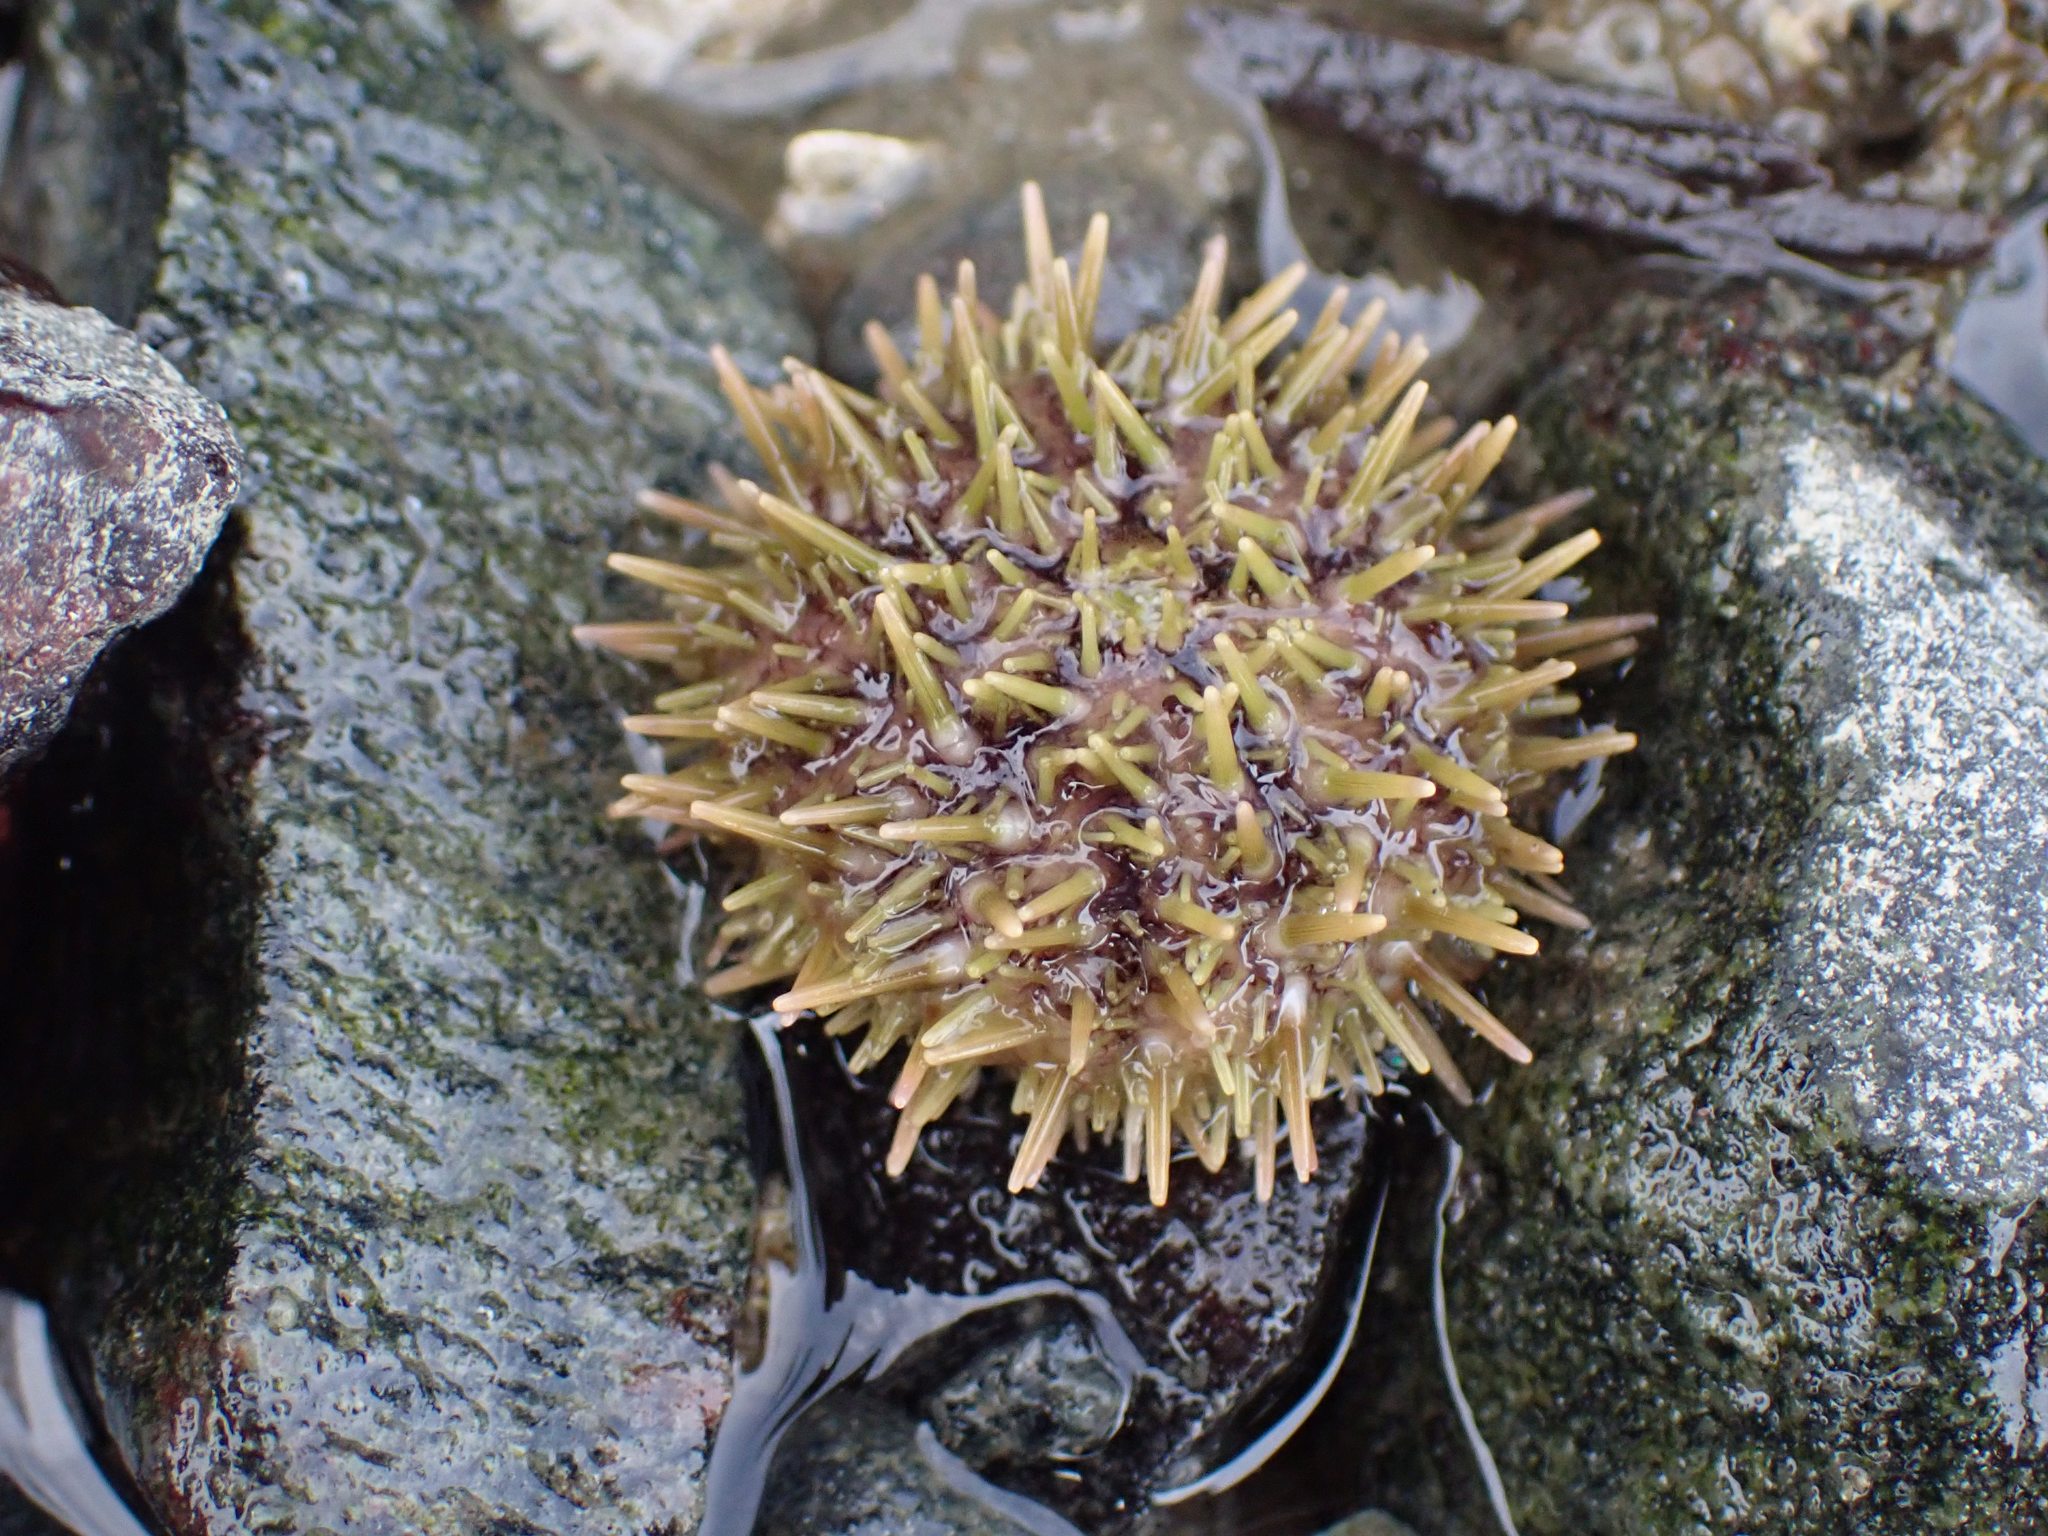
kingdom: Animalia
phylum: Echinodermata
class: Echinoidea
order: Camarodonta
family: Strongylocentrotidae
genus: Strongylocentrotus
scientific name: Strongylocentrotus droebachiensis
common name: Northern sea urchin
